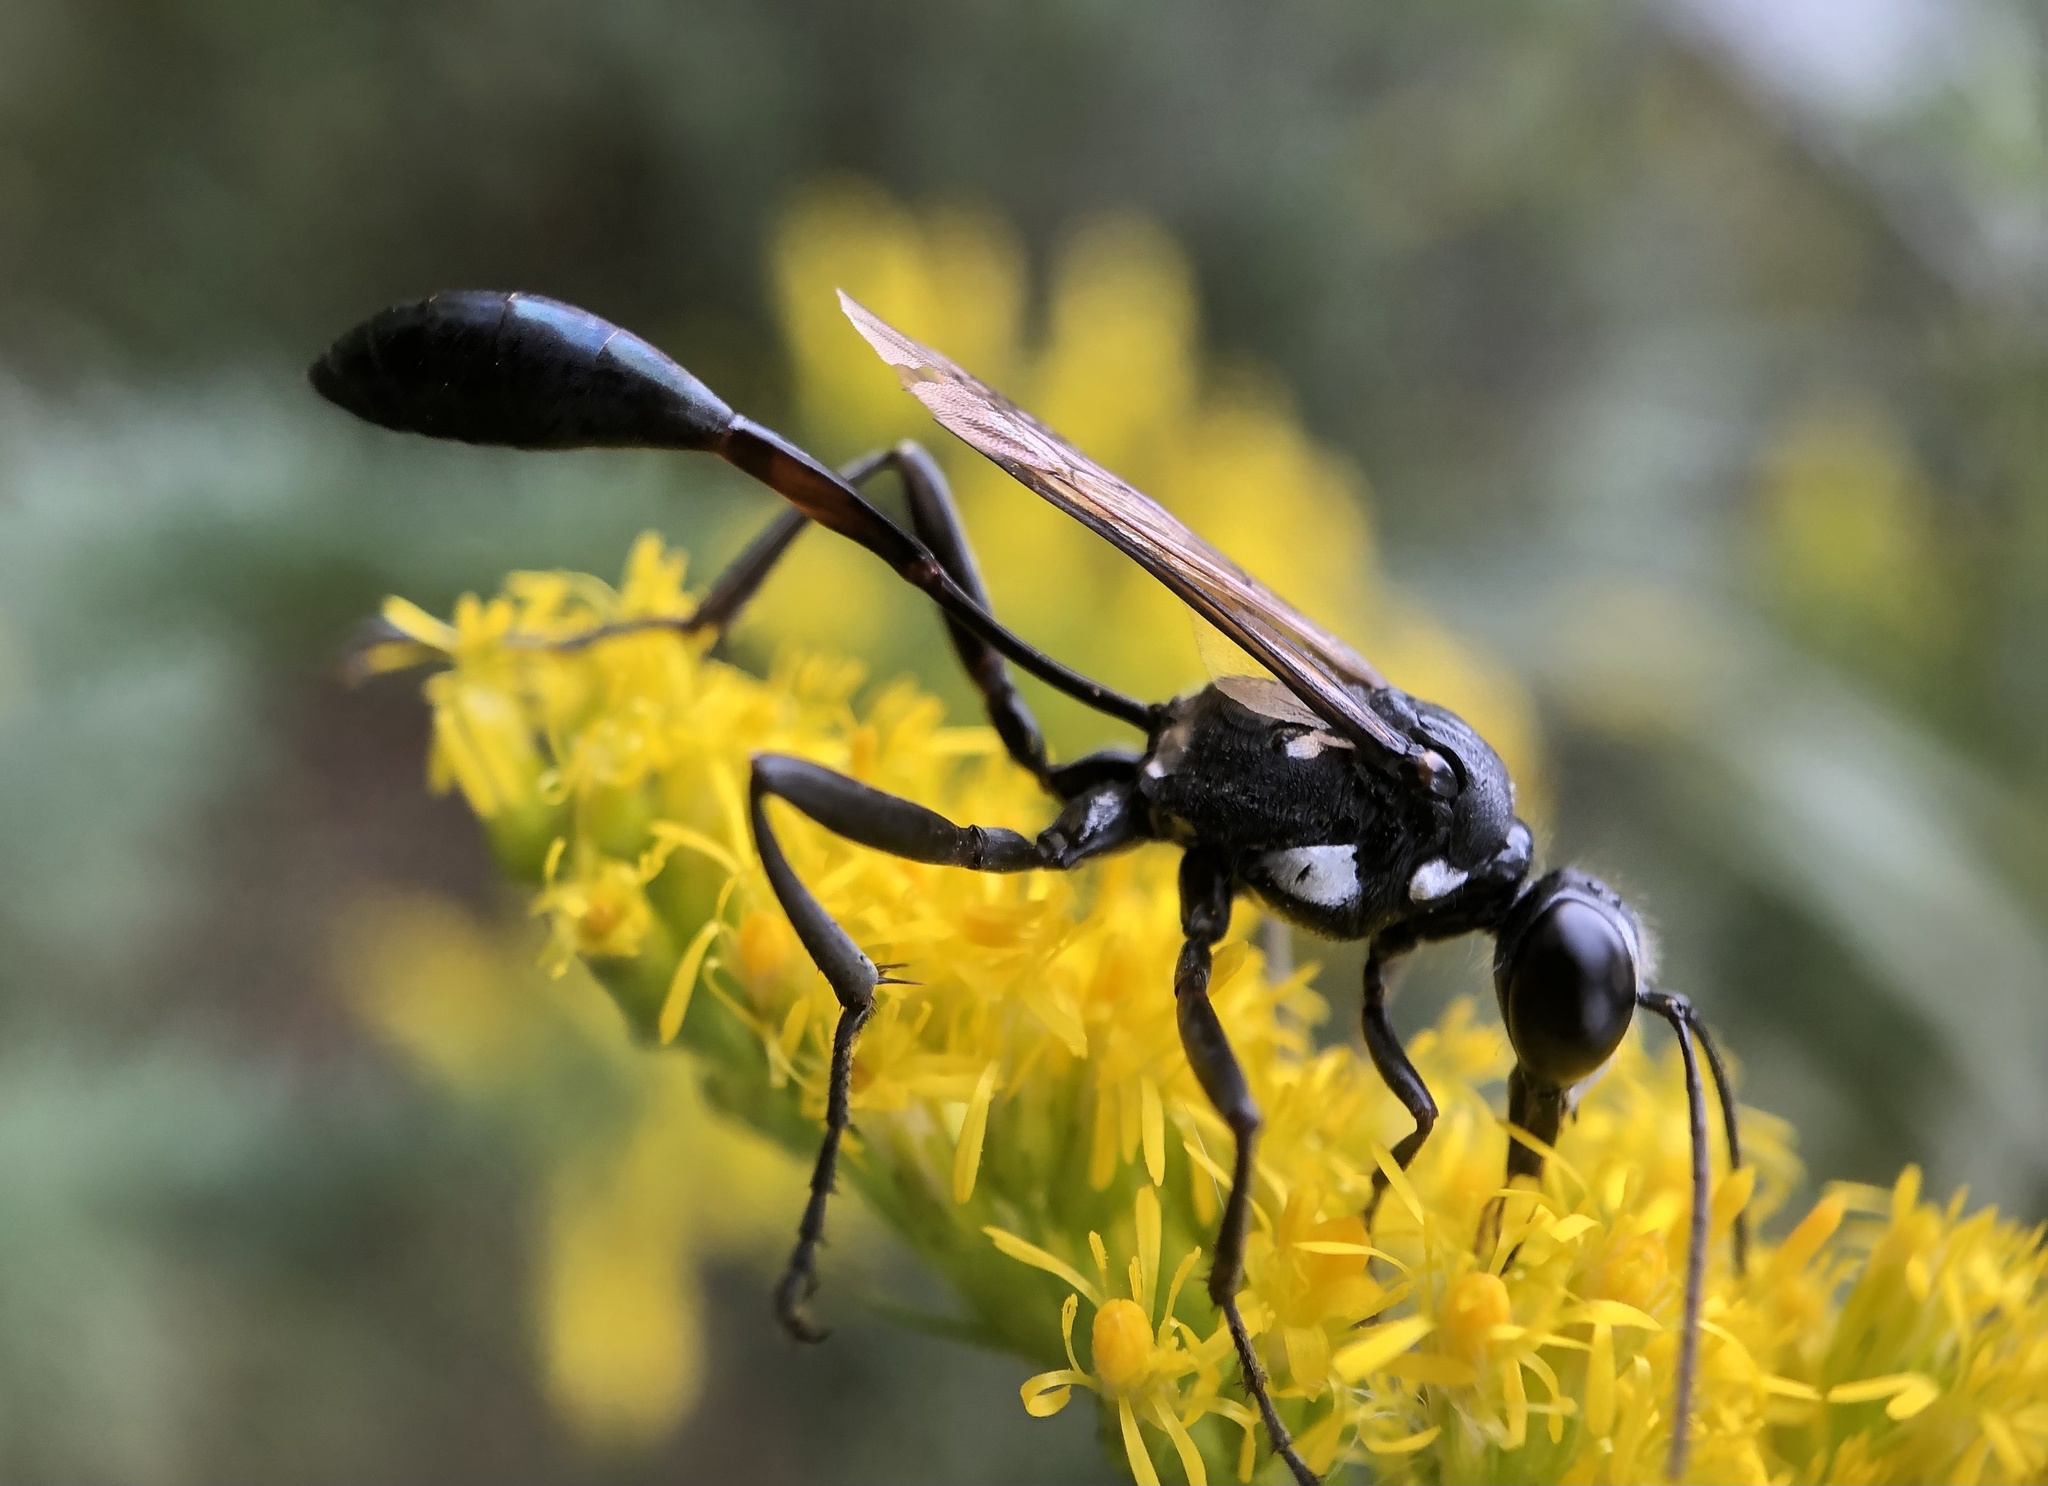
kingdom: Animalia
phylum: Arthropoda
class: Insecta
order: Hymenoptera
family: Sphecidae
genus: Eremnophila
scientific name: Eremnophila aureonotata
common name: Gold-marked thread-waisted wasp
